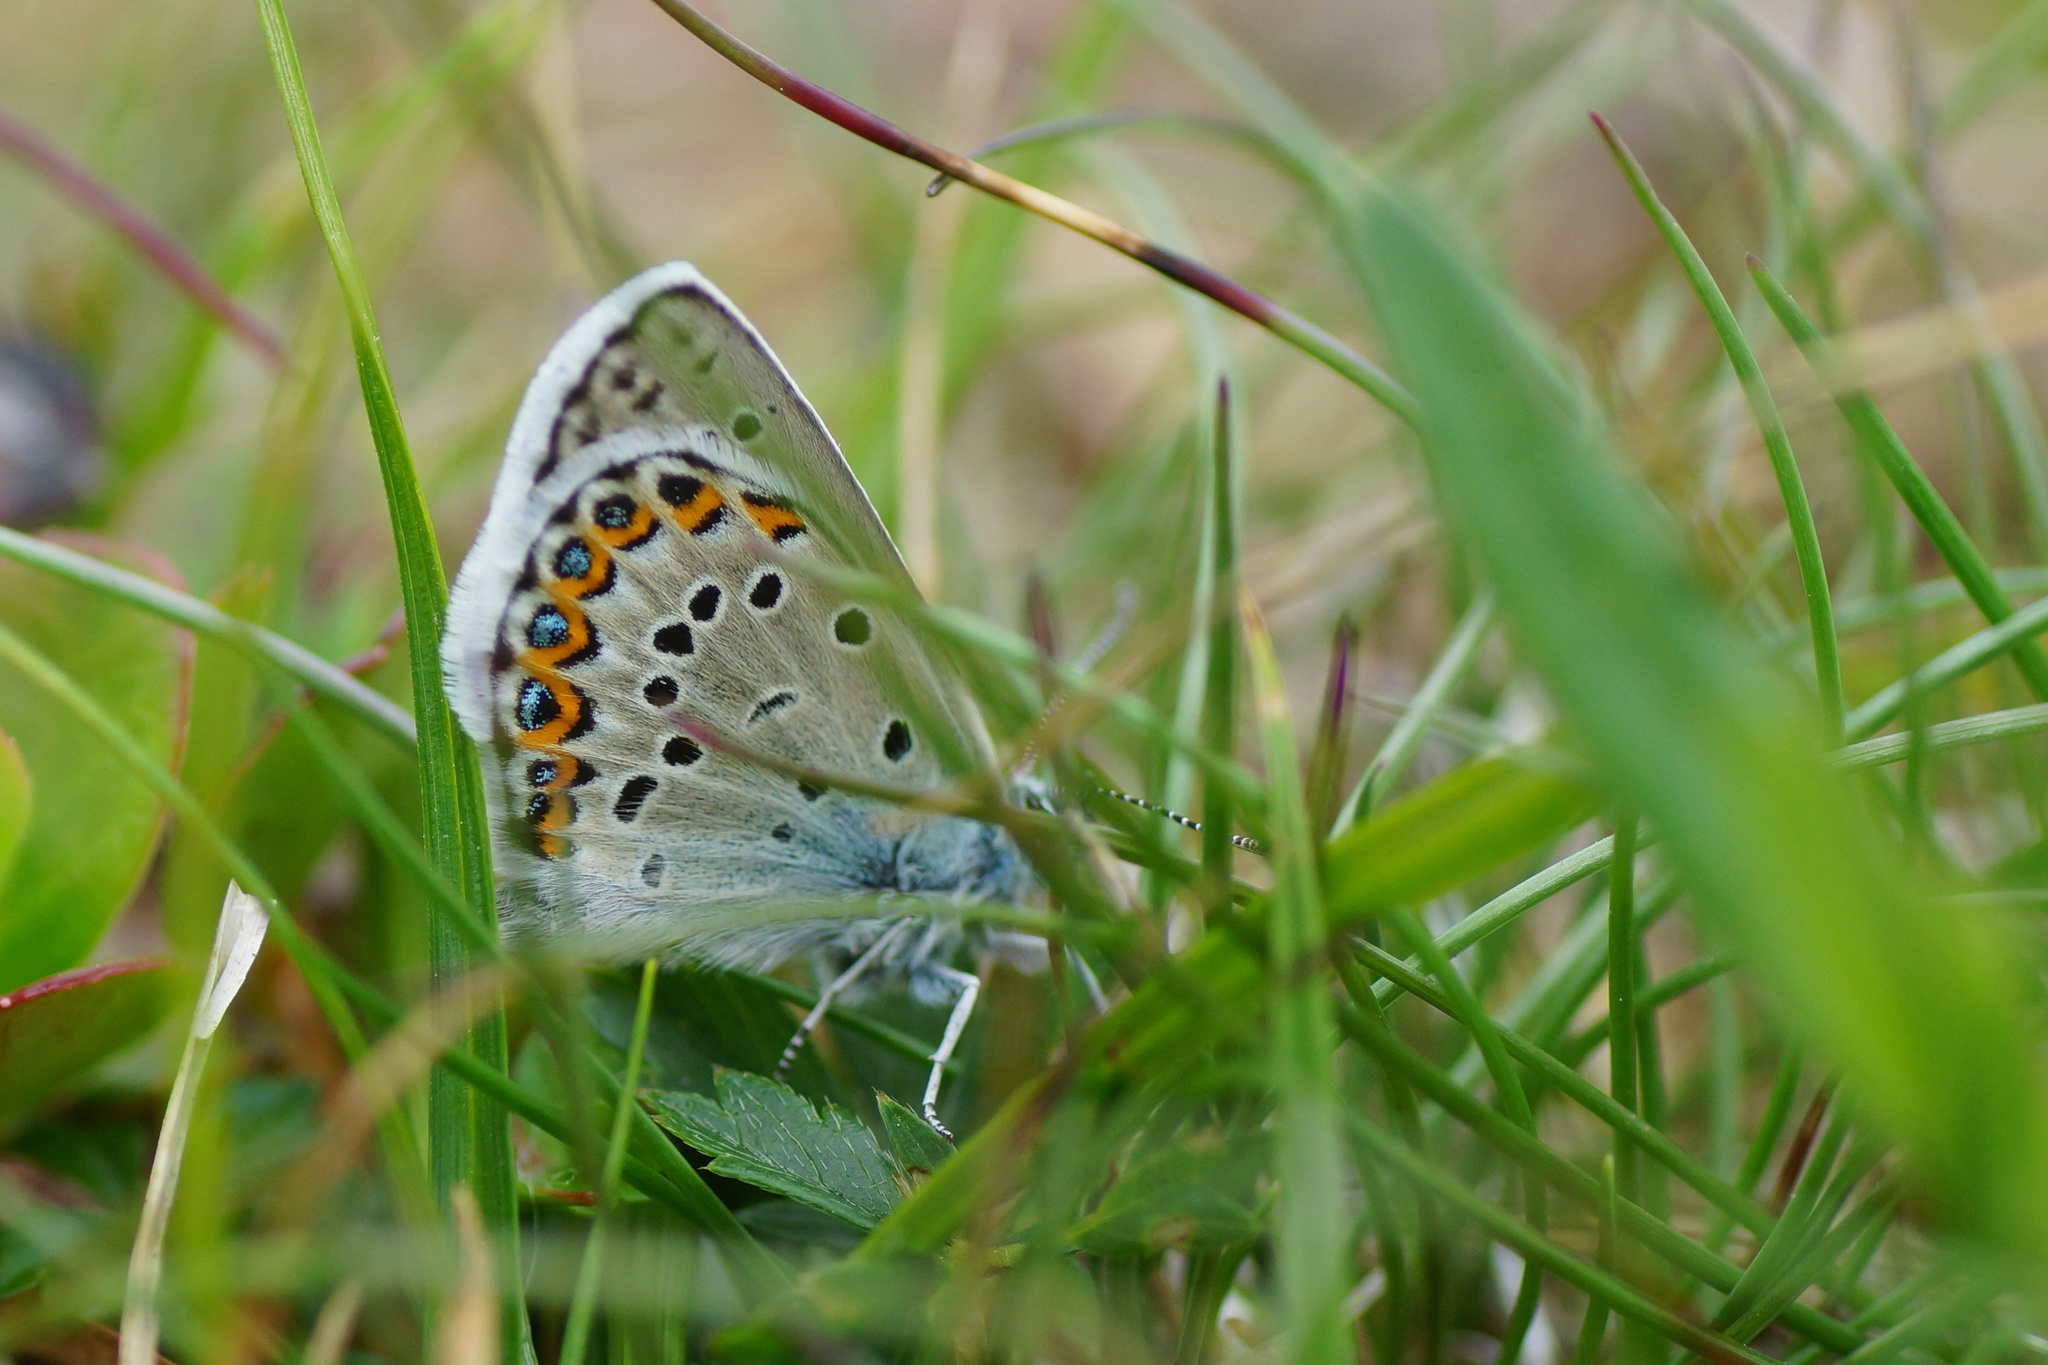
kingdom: Animalia
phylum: Arthropoda
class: Insecta
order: Lepidoptera
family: Lycaenidae
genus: Lycaeides
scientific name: Lycaeides idas
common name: Northern blue
